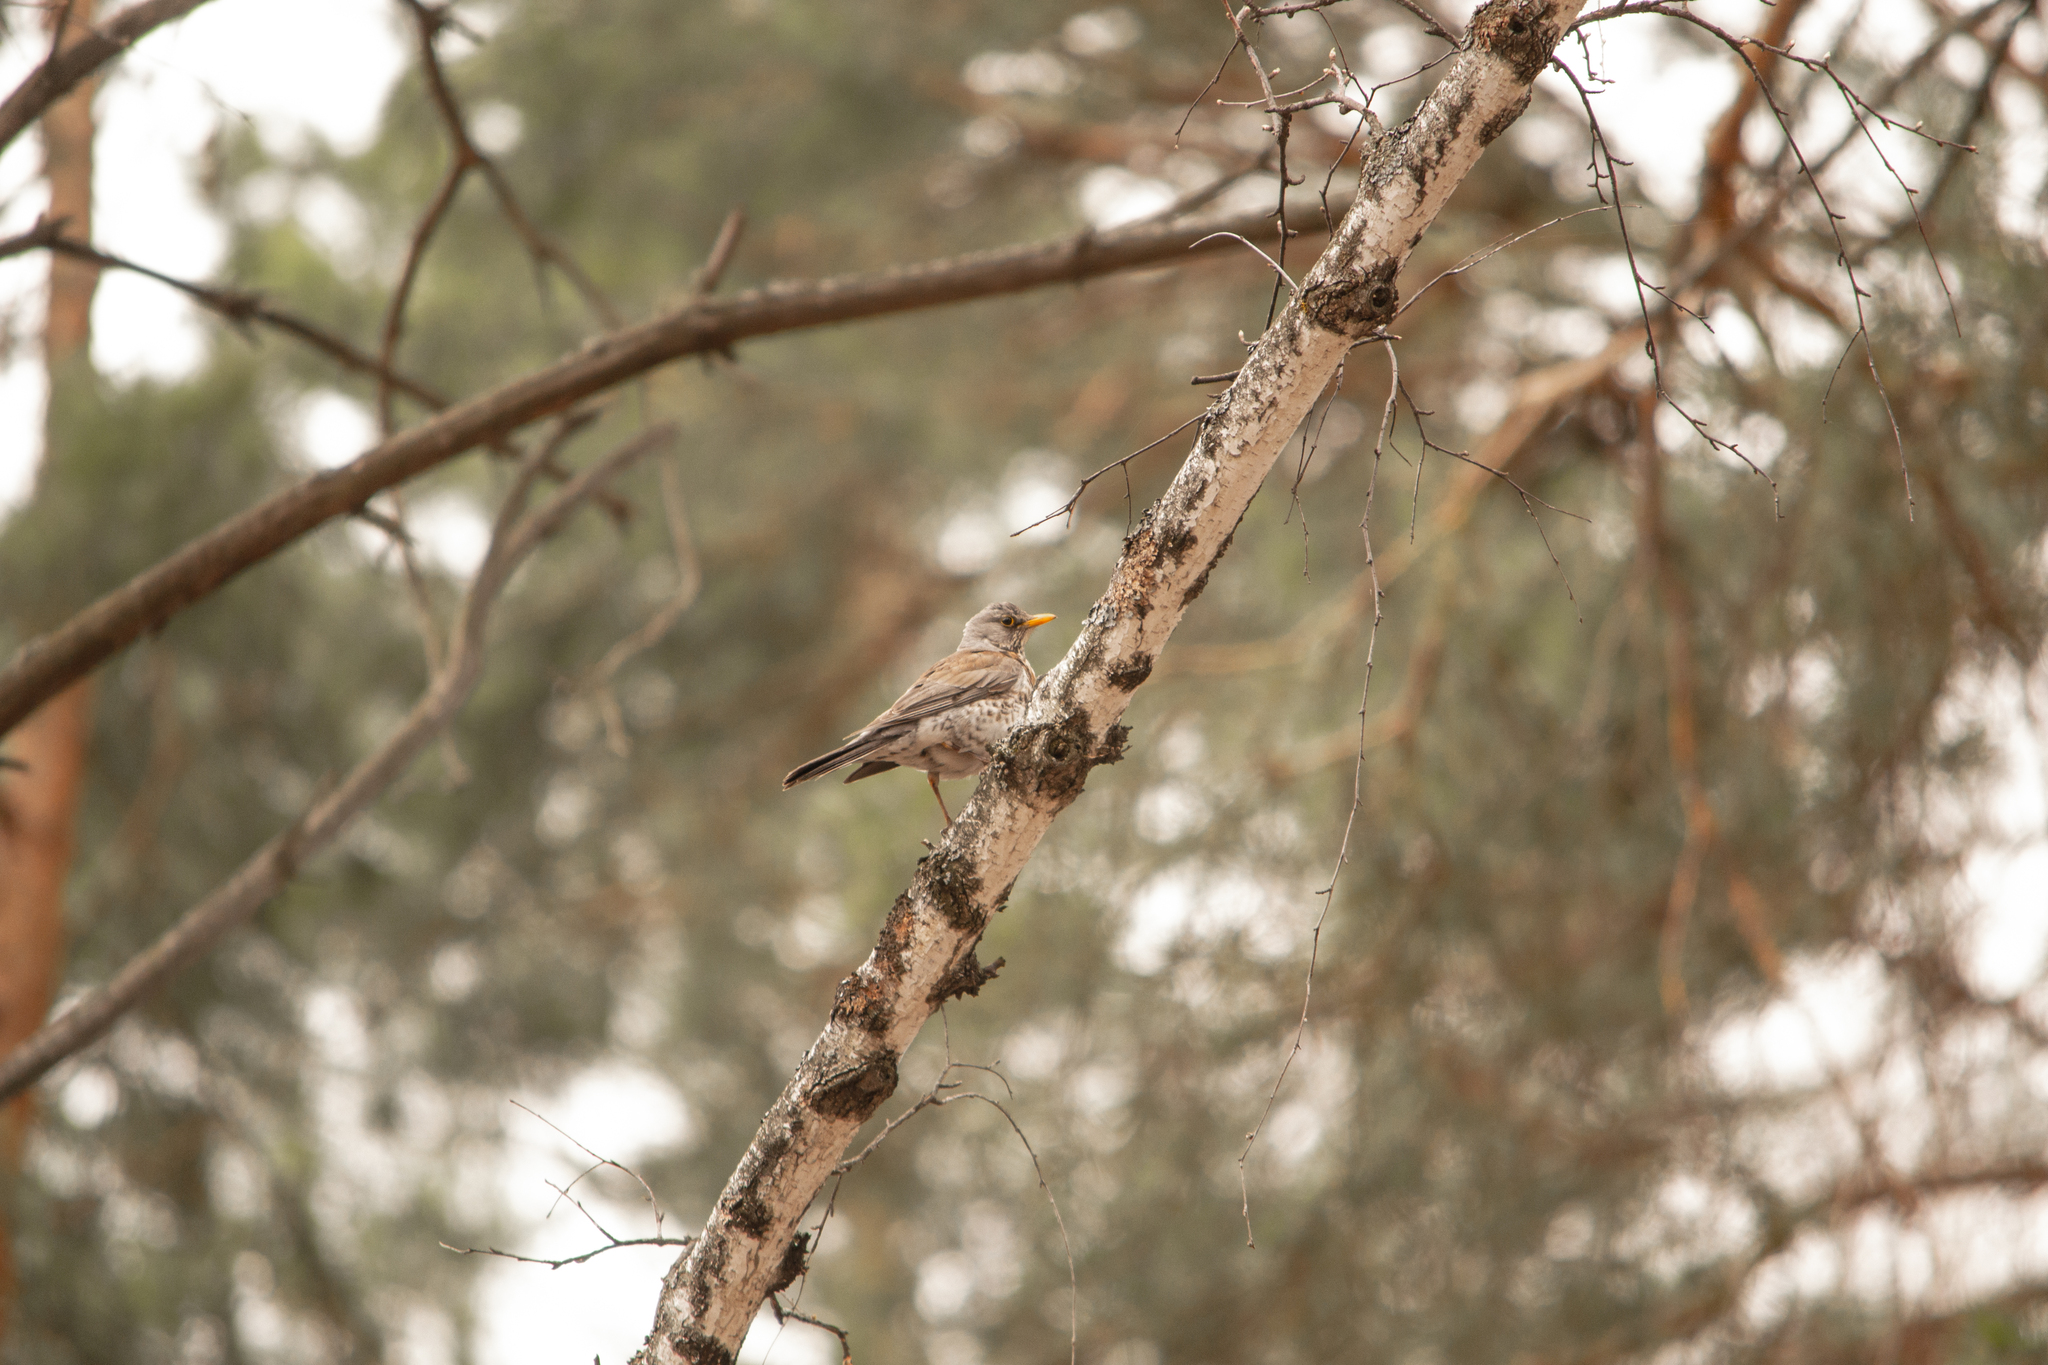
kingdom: Animalia
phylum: Chordata
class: Aves
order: Passeriformes
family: Turdidae
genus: Turdus
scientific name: Turdus pilaris
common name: Fieldfare
